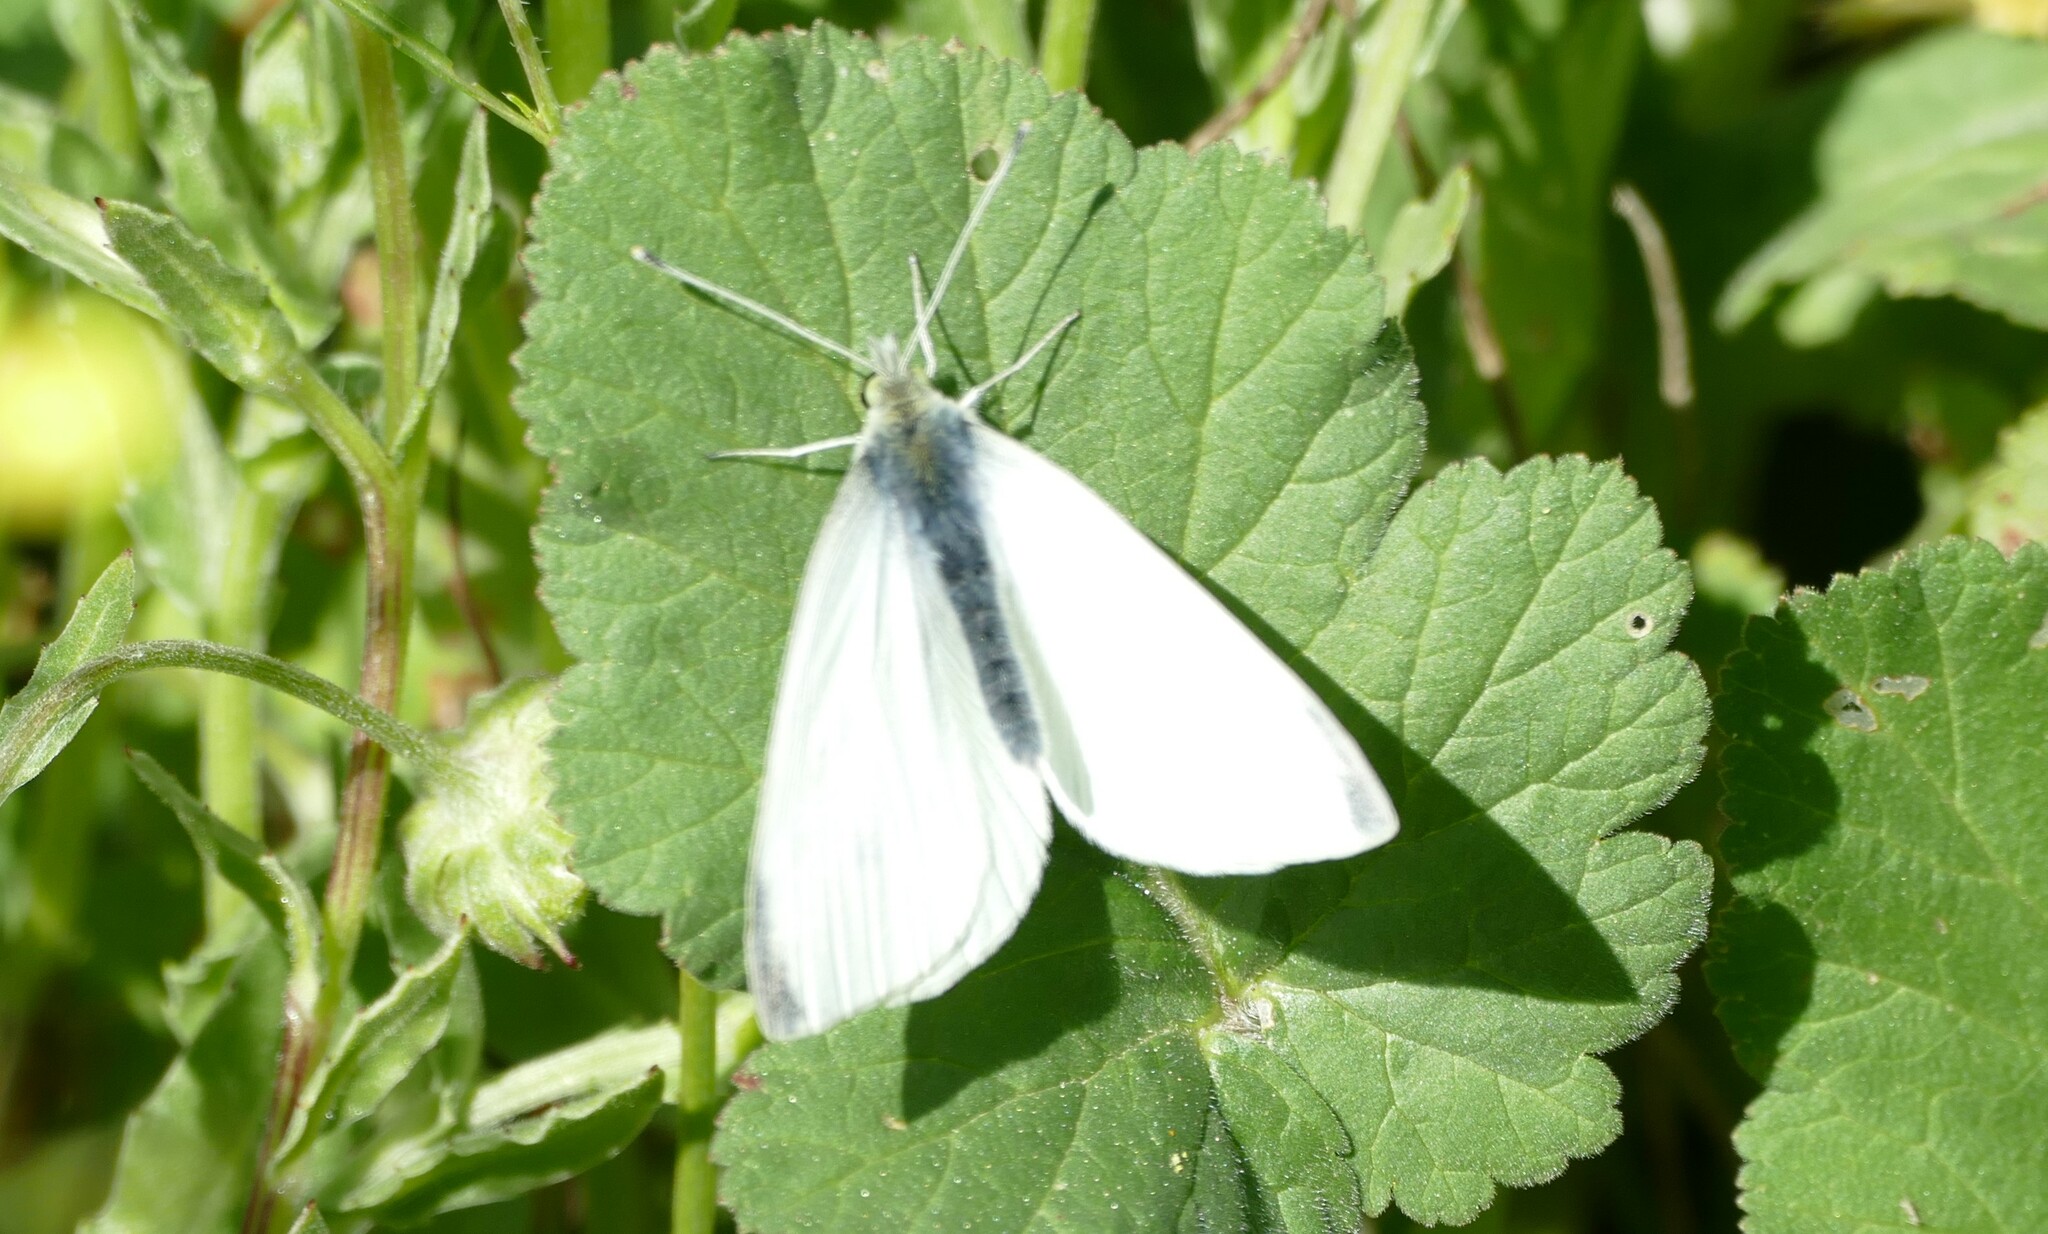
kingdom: Animalia
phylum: Arthropoda
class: Insecta
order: Lepidoptera
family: Pieridae
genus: Pieris
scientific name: Pieris rapae
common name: Small white
